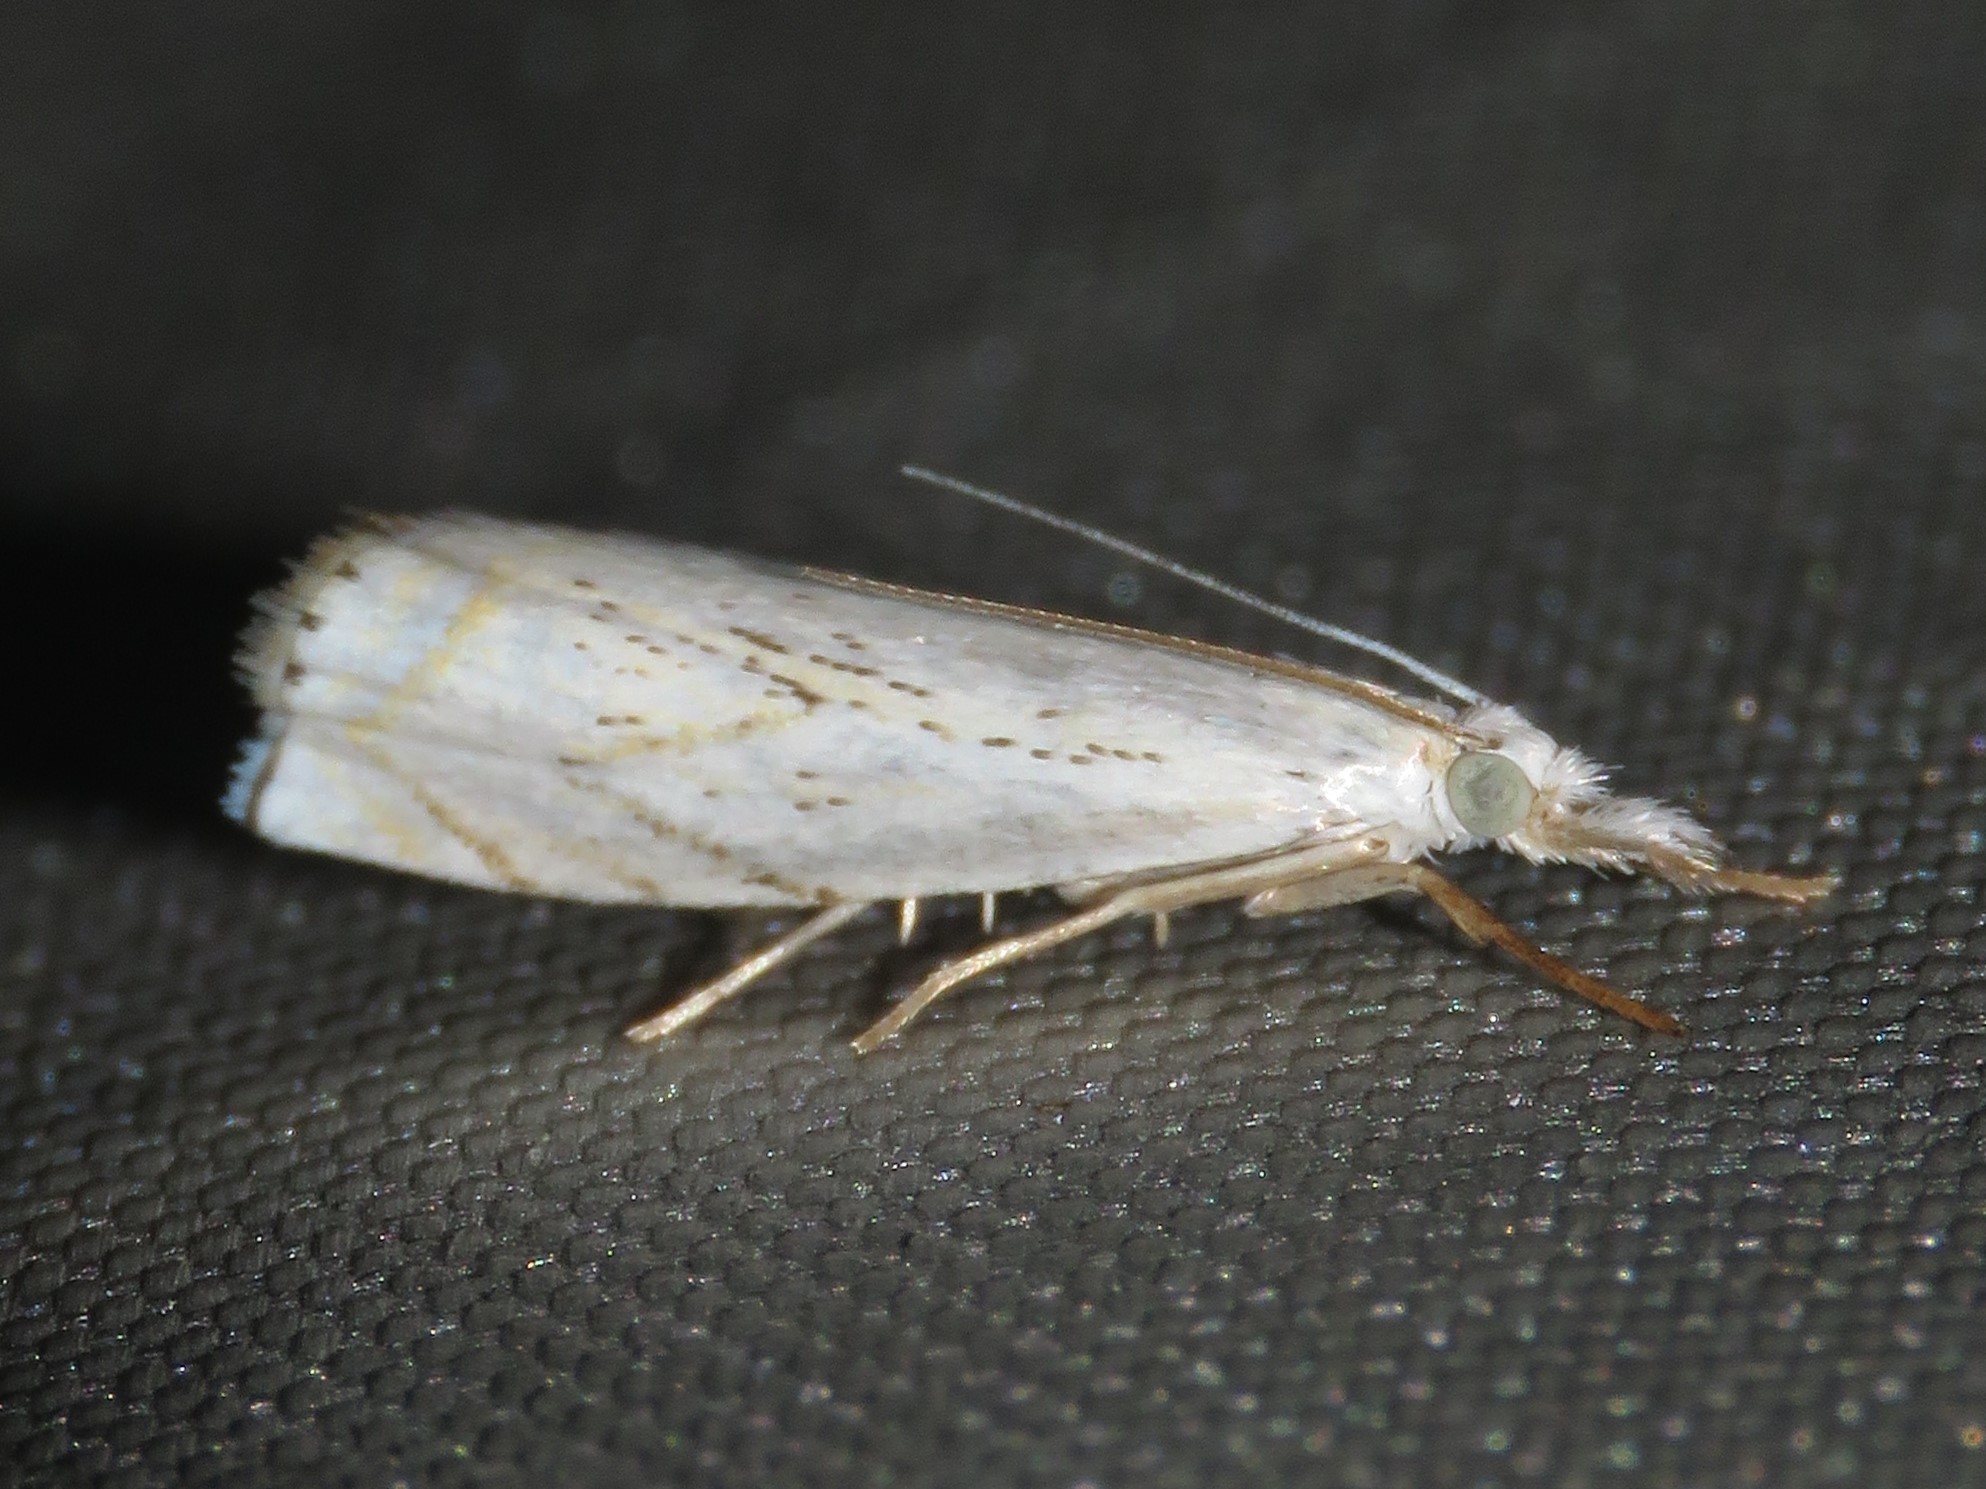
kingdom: Animalia
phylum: Arthropoda
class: Insecta
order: Lepidoptera
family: Crambidae
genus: Crambus
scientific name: Crambus albellus
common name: Small white grass-veneer
